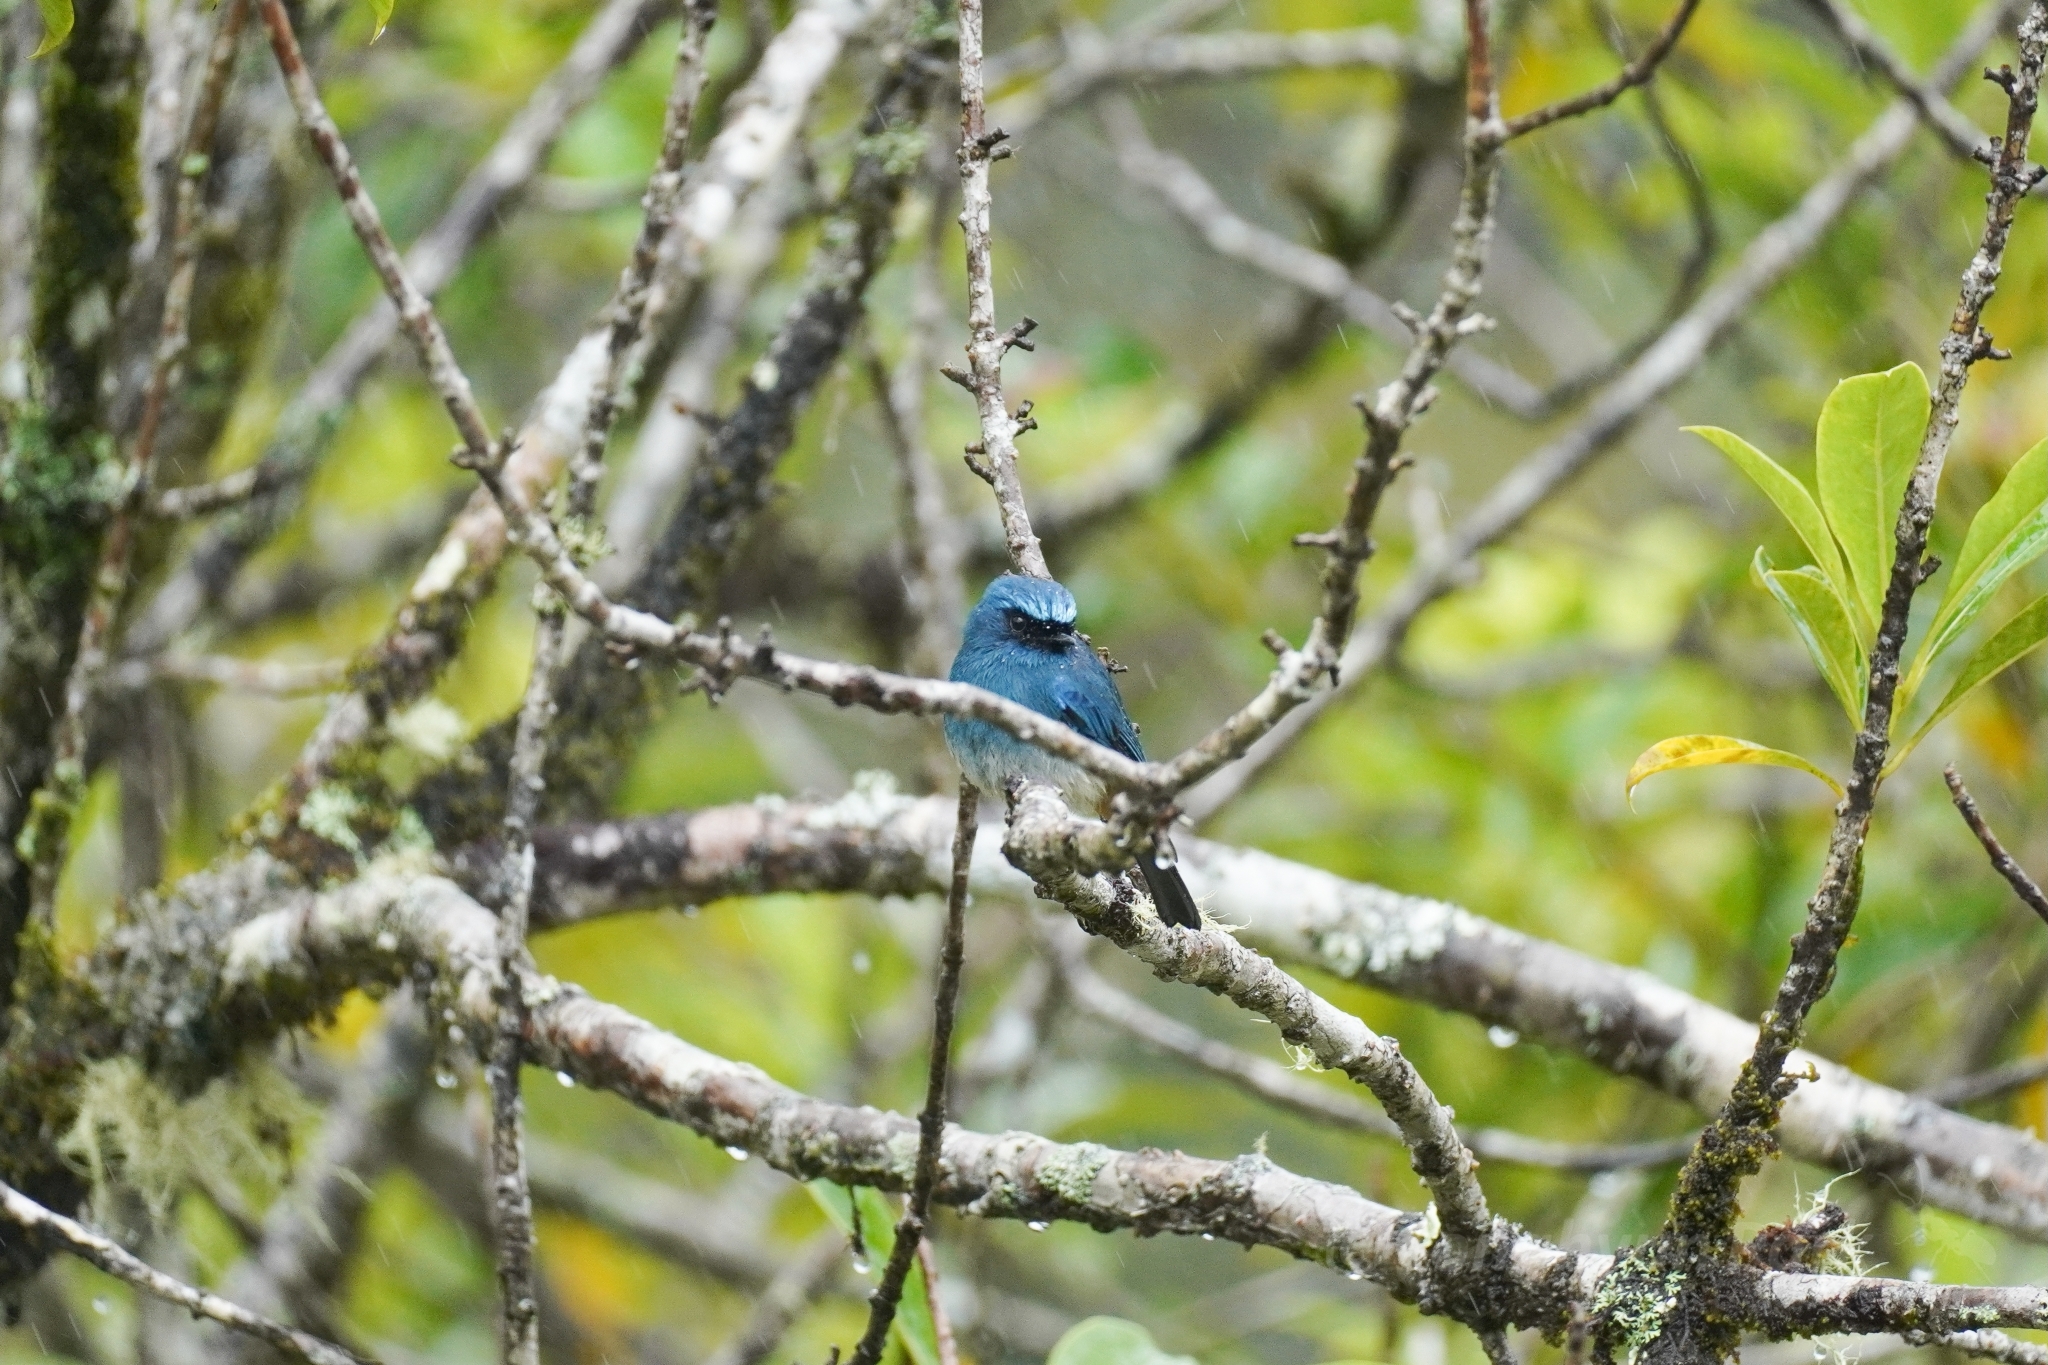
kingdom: Animalia
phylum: Chordata
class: Aves
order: Passeriformes
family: Muscicapidae
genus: Eumyias
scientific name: Eumyias indigo
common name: Indigo flycatcher
